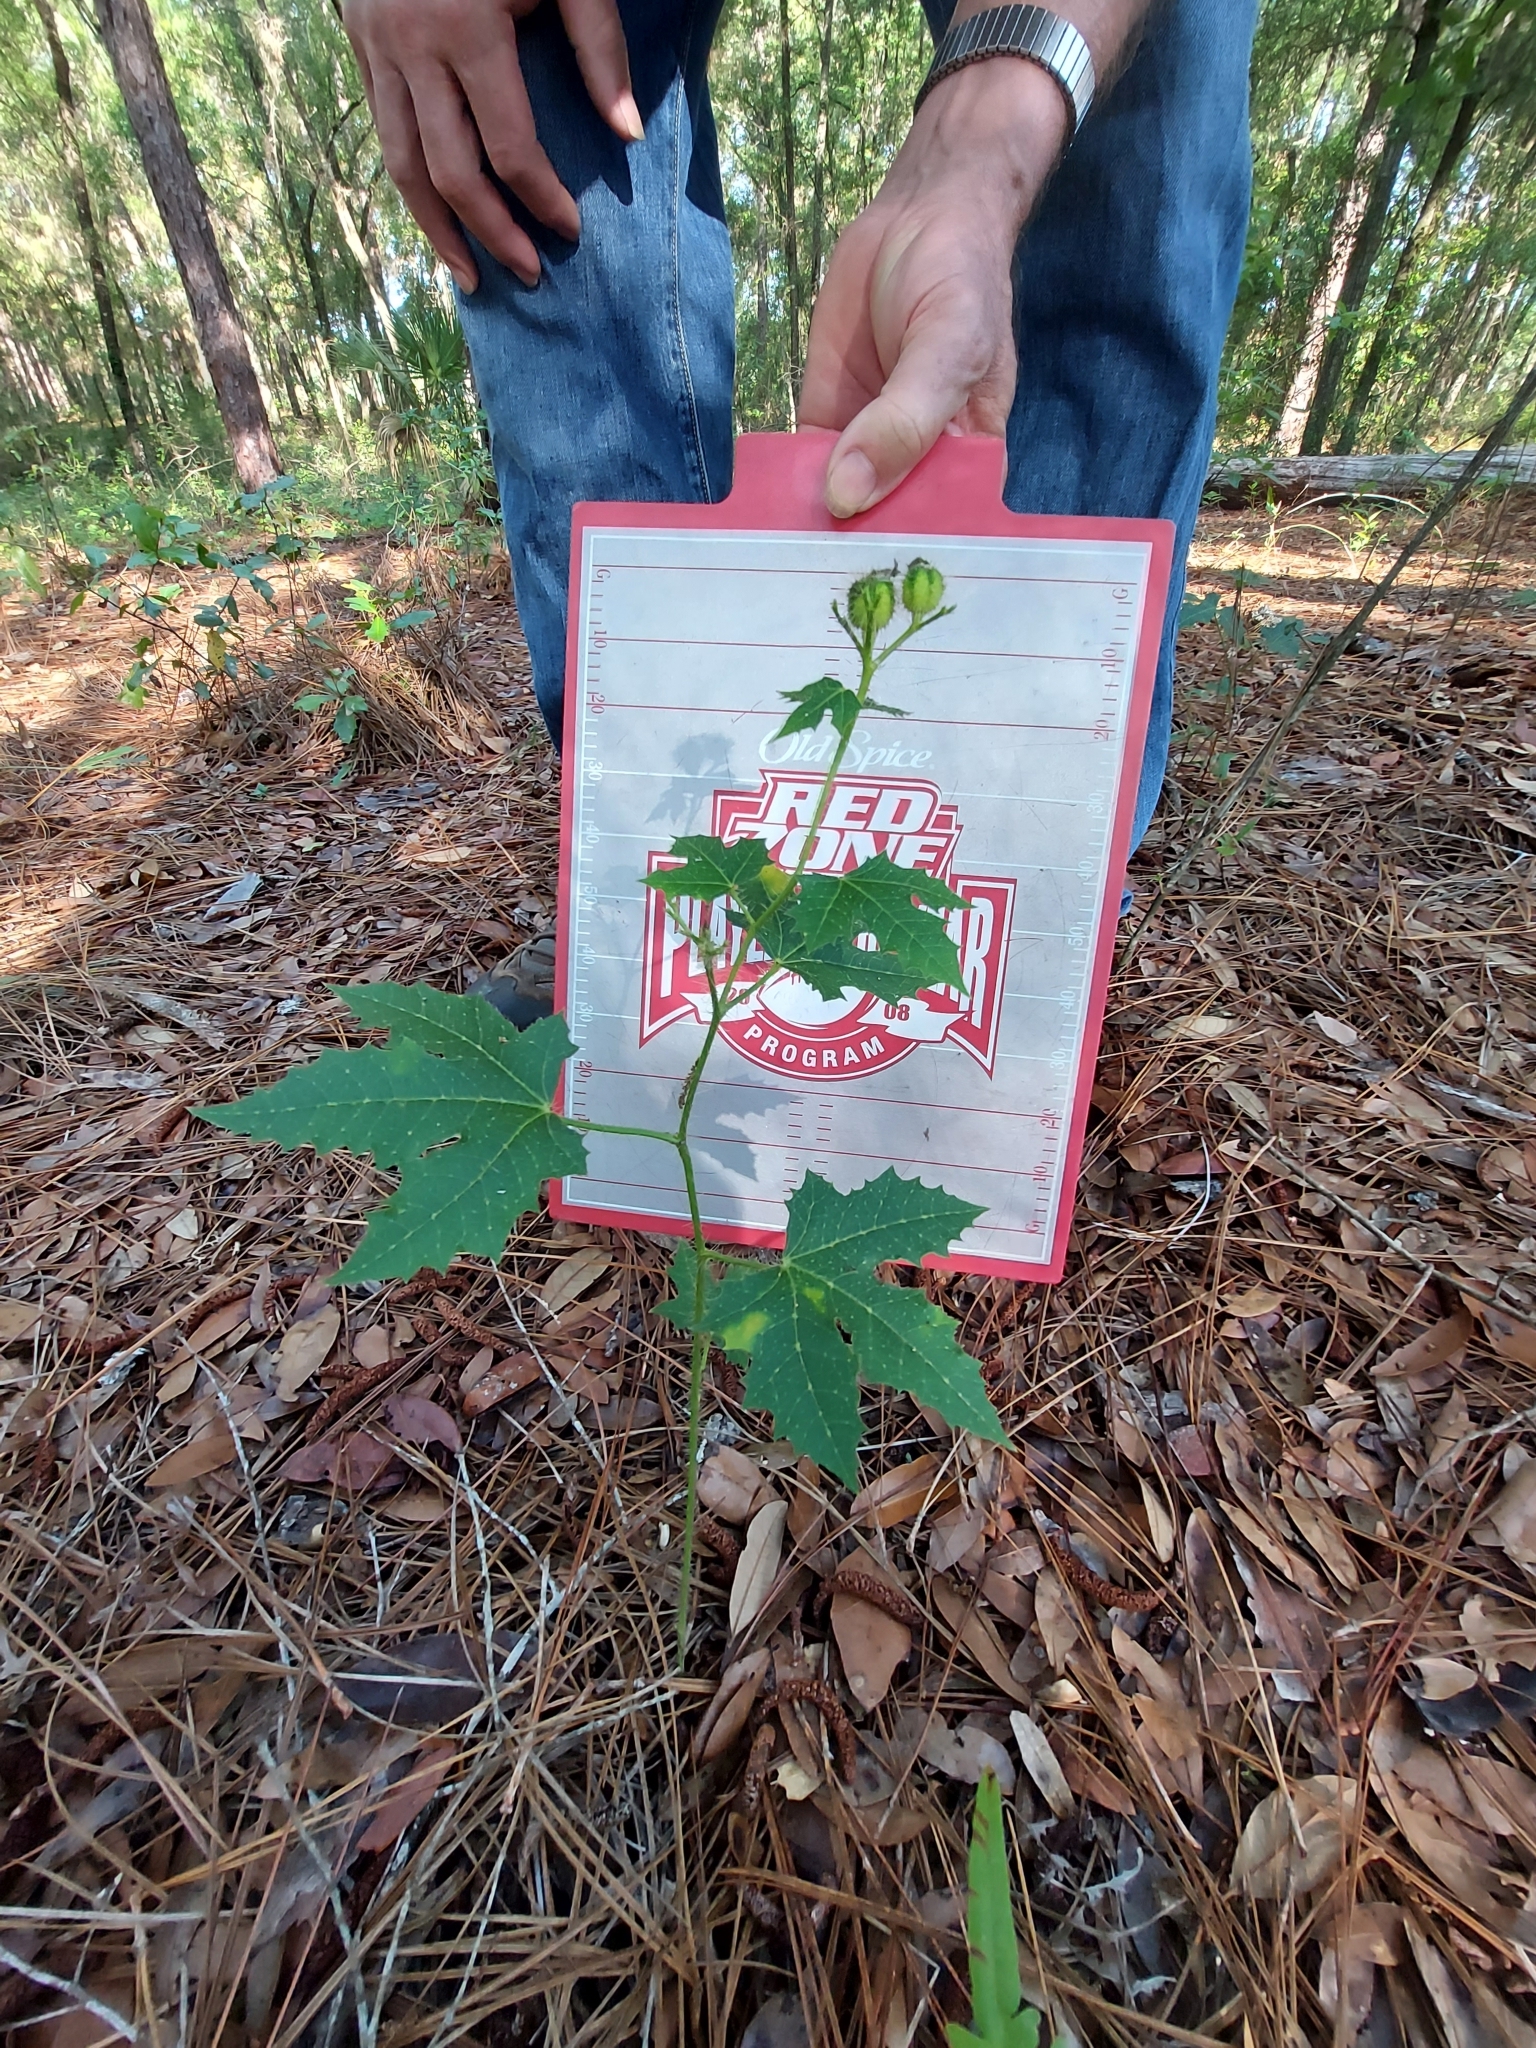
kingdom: Plantae
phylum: Tracheophyta
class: Magnoliopsida
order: Malpighiales
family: Euphorbiaceae
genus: Cnidoscolus
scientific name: Cnidoscolus stimulosus
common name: Bull-nettle
